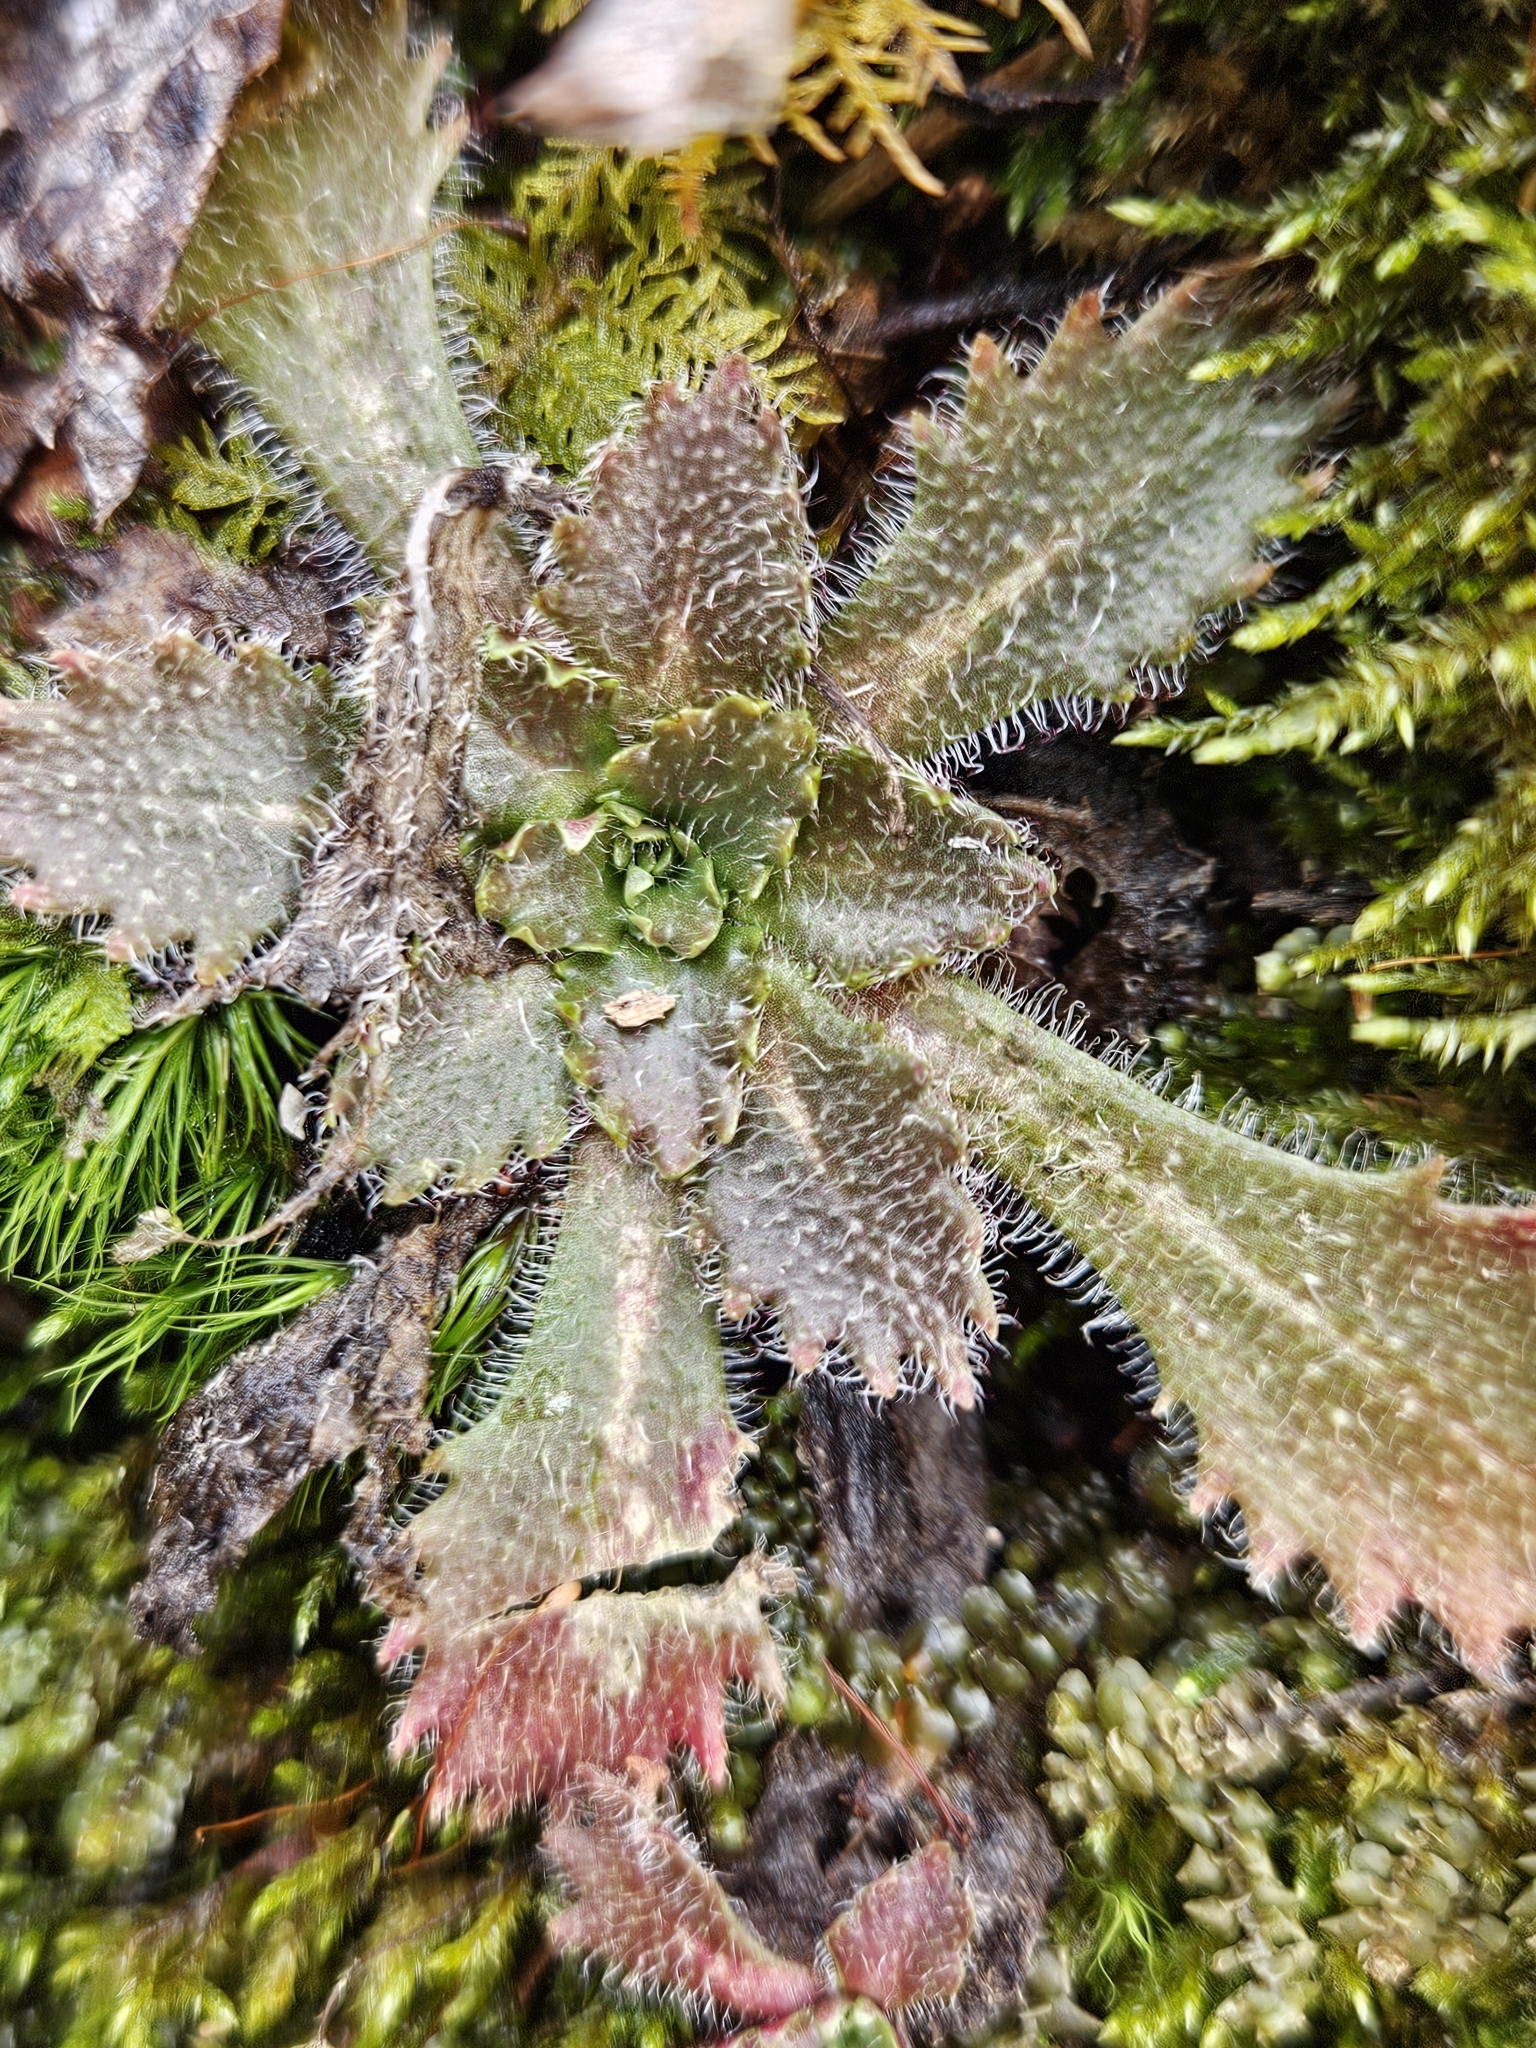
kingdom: Plantae
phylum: Tracheophyta
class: Magnoliopsida
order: Saxifragales
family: Saxifragaceae
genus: Micranthes
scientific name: Micranthes petiolaris
